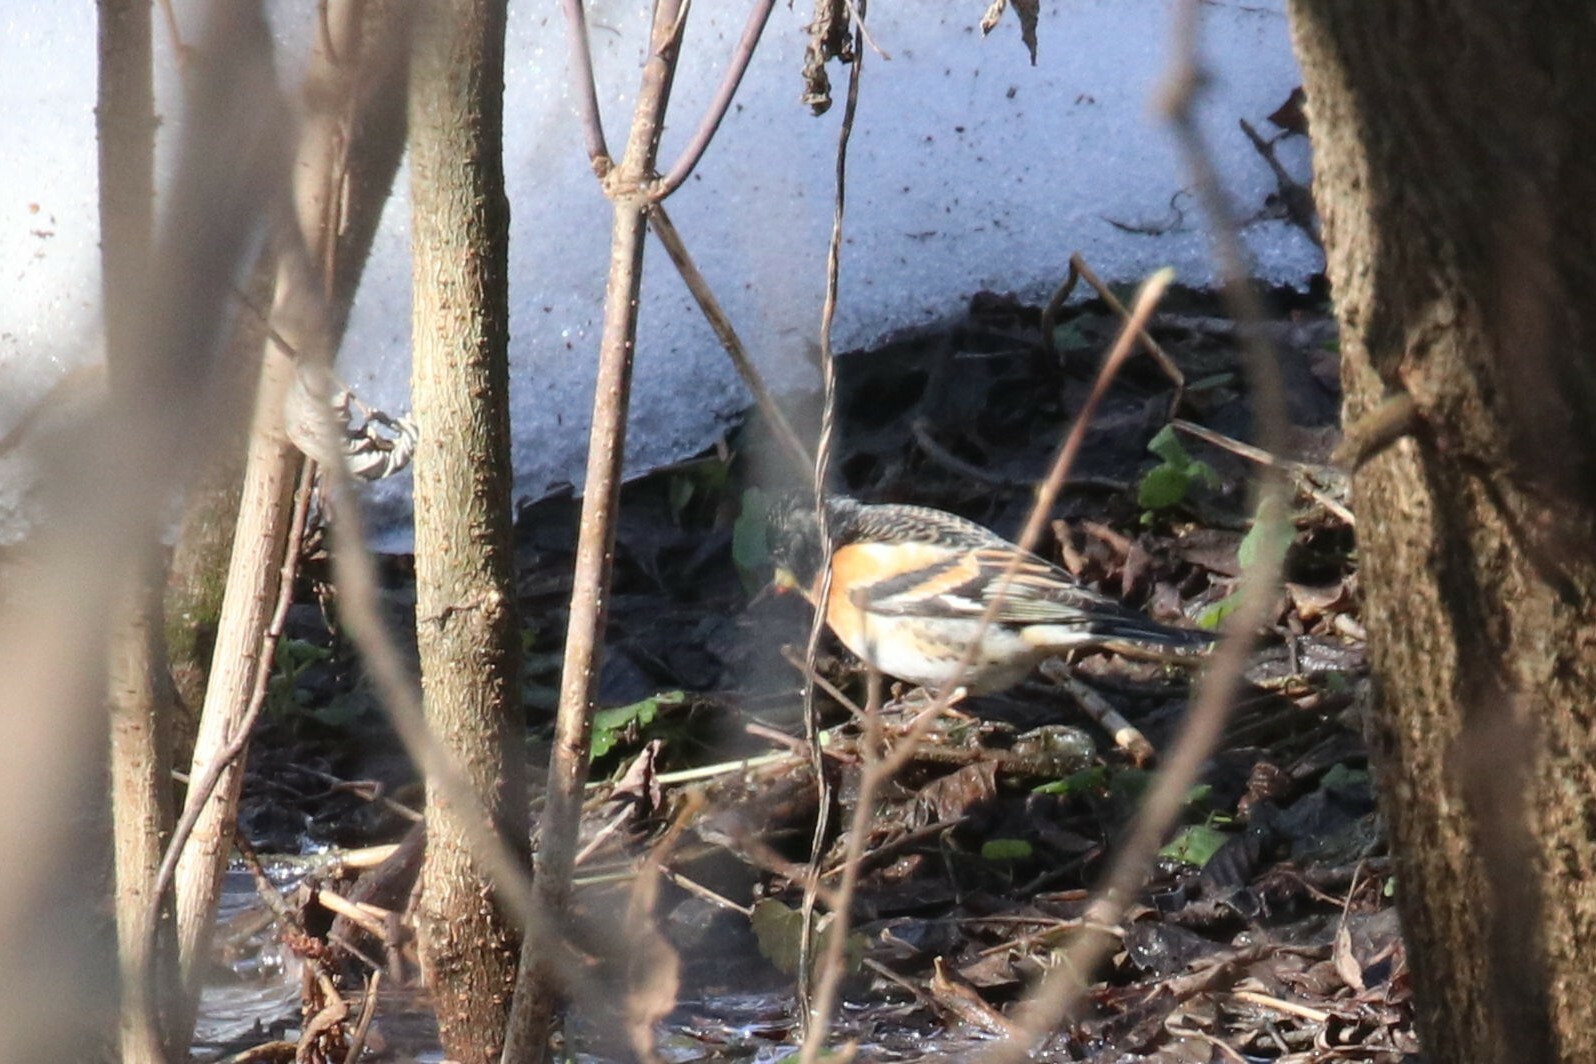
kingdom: Animalia
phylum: Chordata
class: Aves
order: Passeriformes
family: Fringillidae
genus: Fringilla
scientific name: Fringilla montifringilla
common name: Brambling
